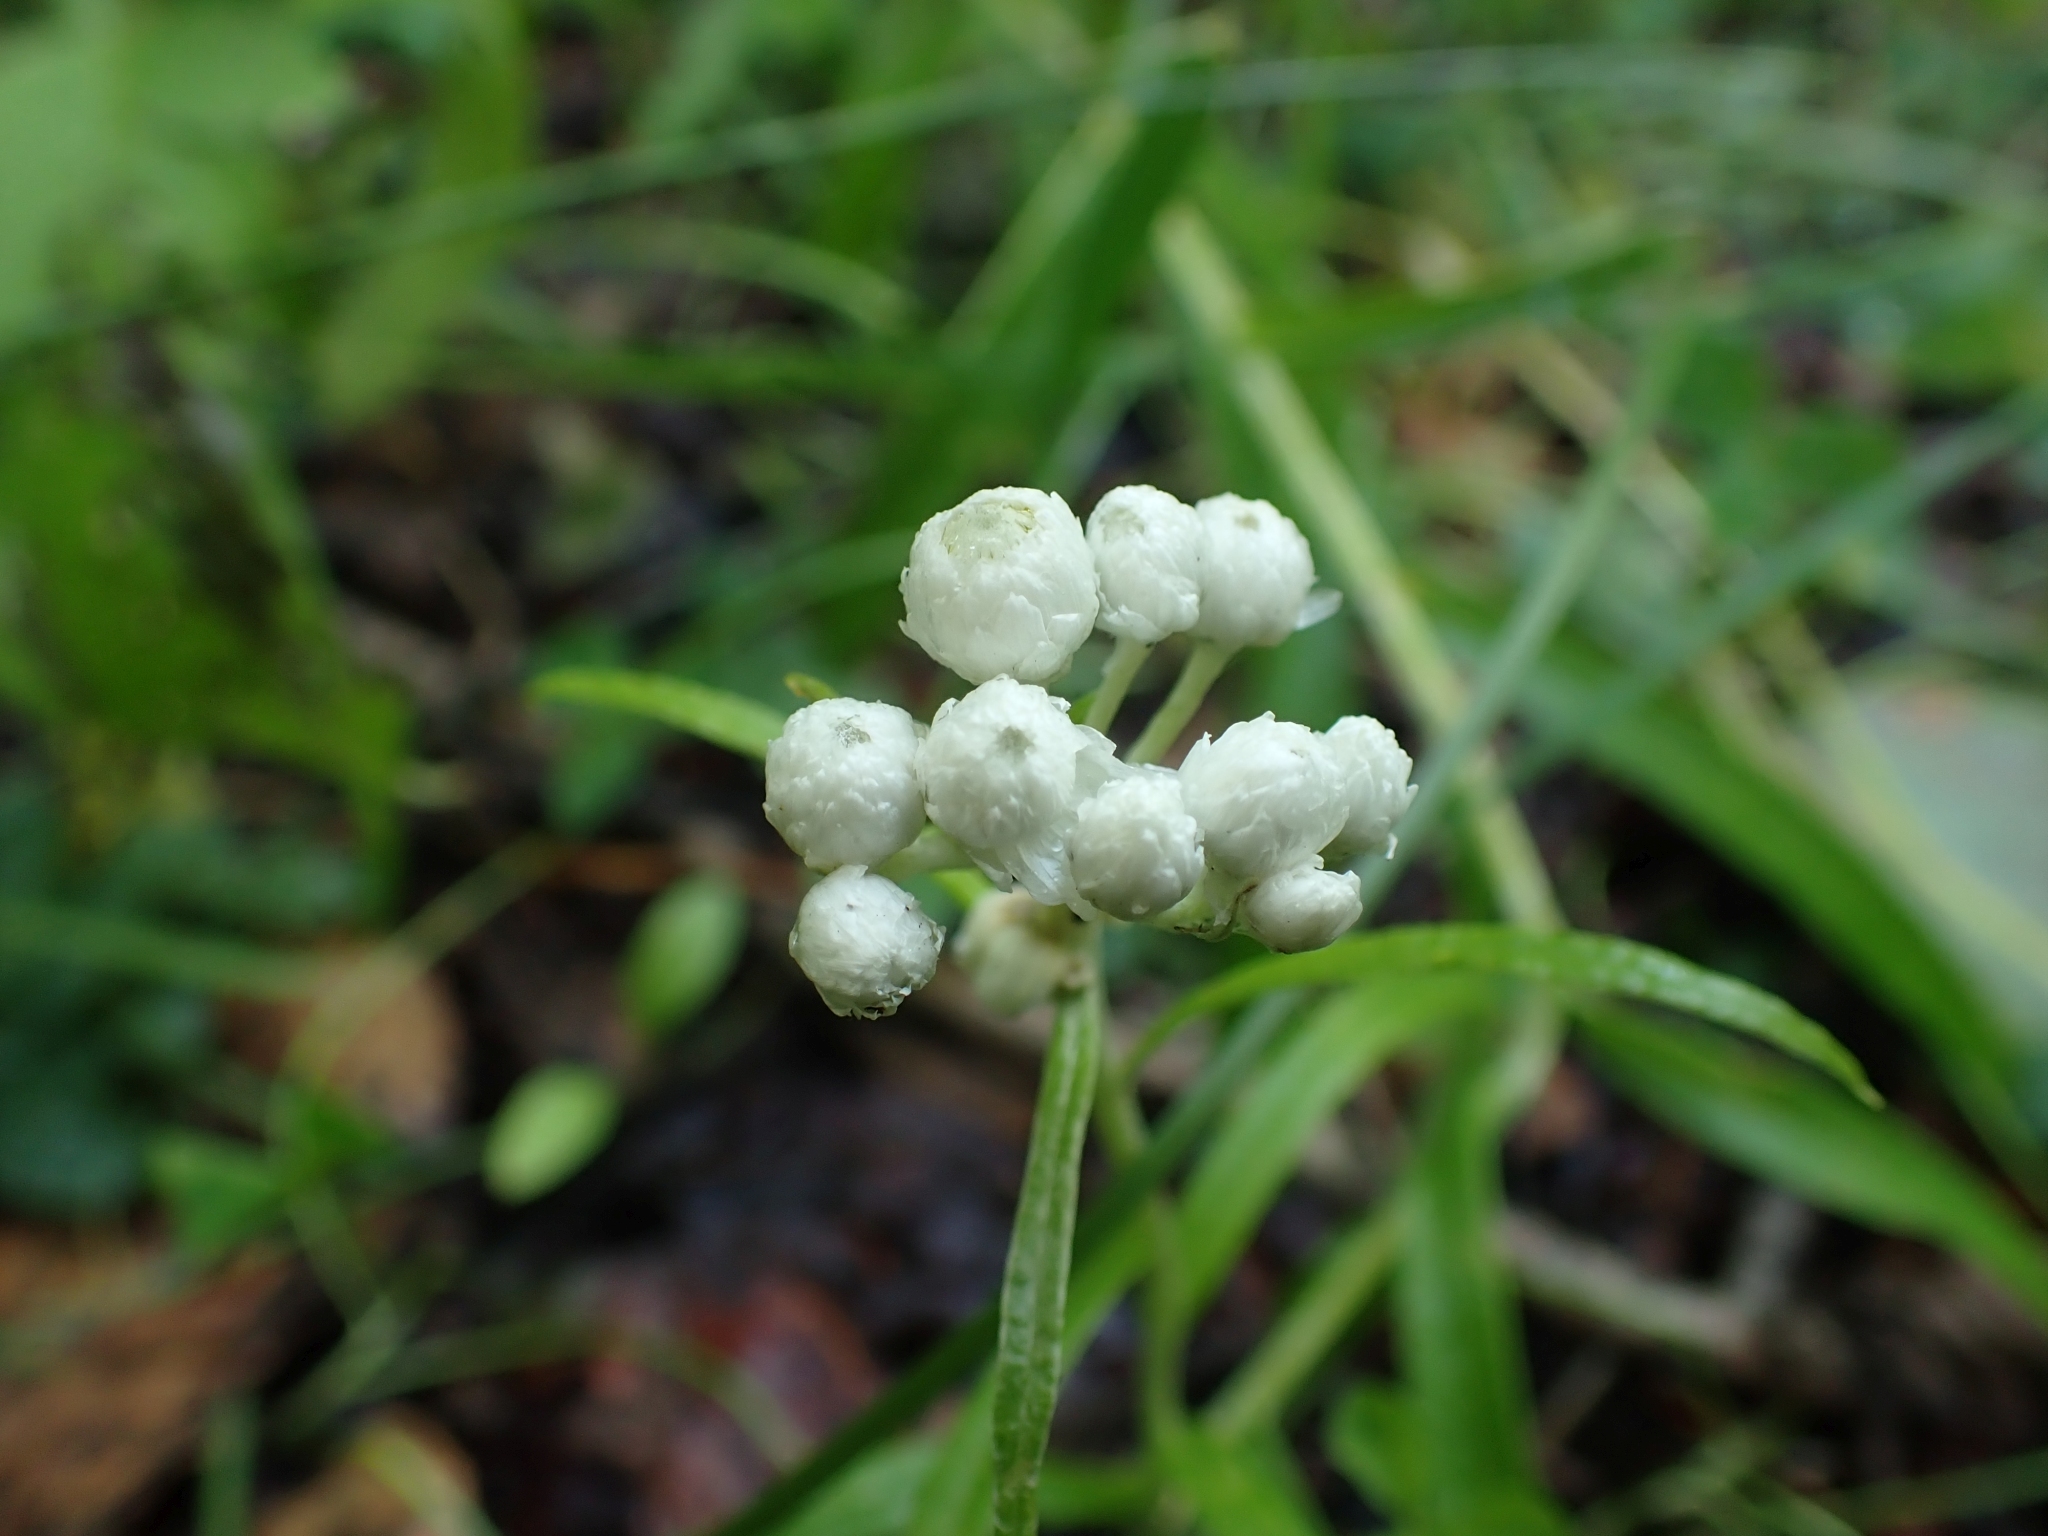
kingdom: Plantae
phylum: Tracheophyta
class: Magnoliopsida
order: Asterales
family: Asteraceae
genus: Anaphalis
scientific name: Anaphalis margaritacea
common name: Pearly everlasting
